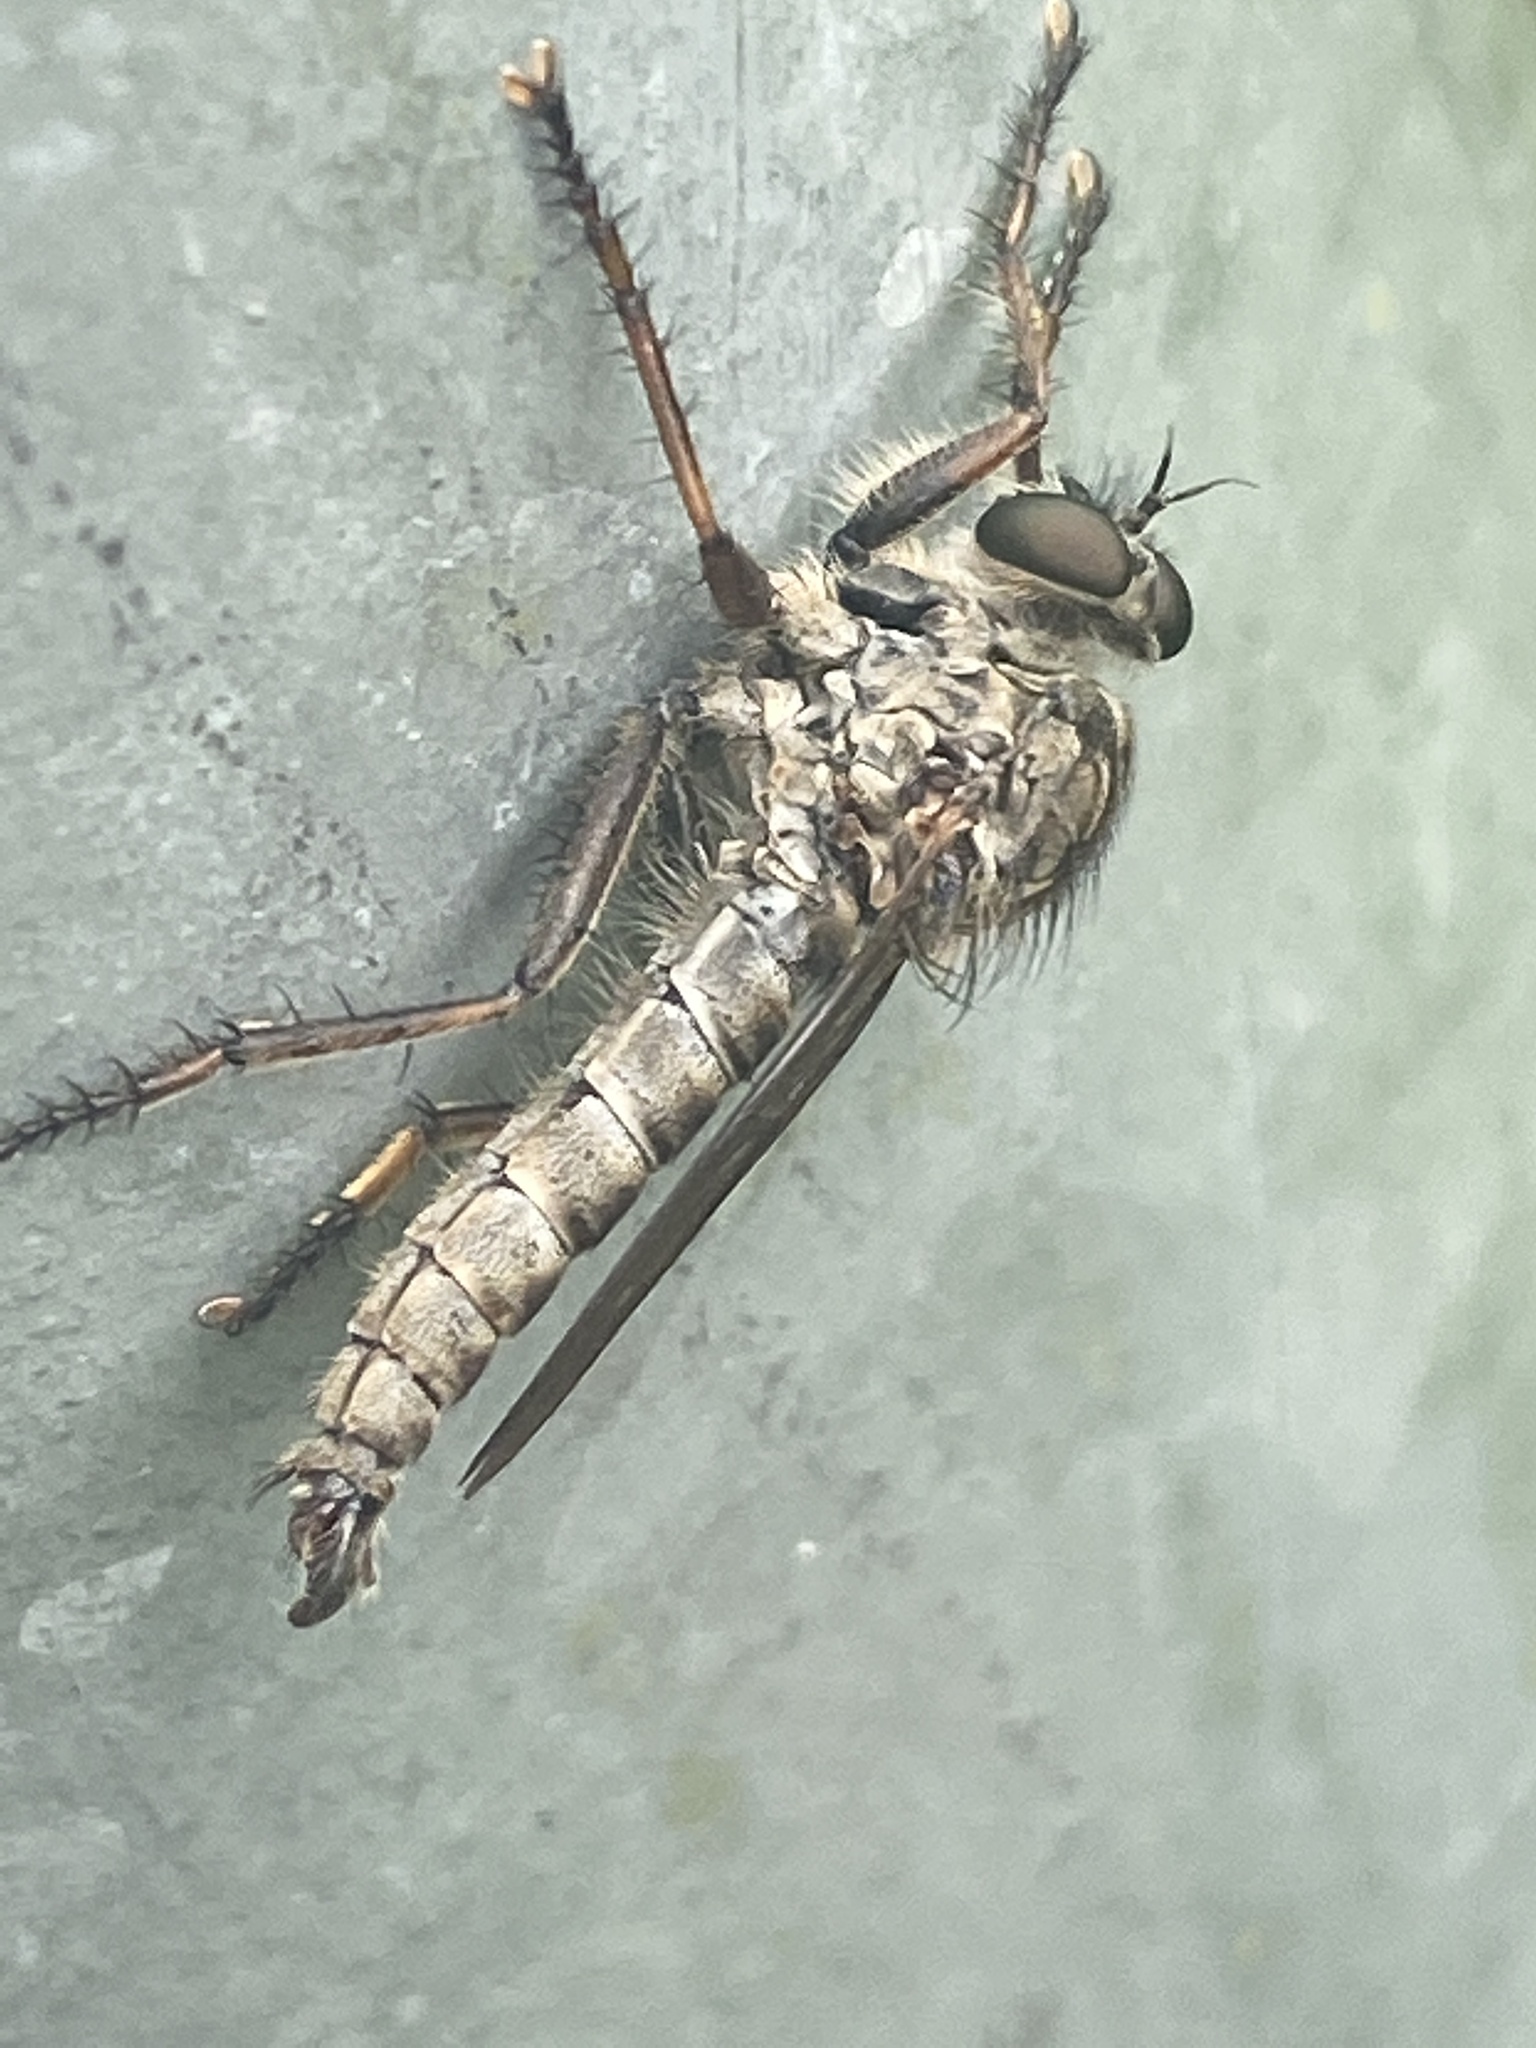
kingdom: Animalia
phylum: Arthropoda
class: Insecta
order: Diptera
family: Asilidae
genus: Machimus
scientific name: Machimus atricapillus
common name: Kite-tailed robberfly
